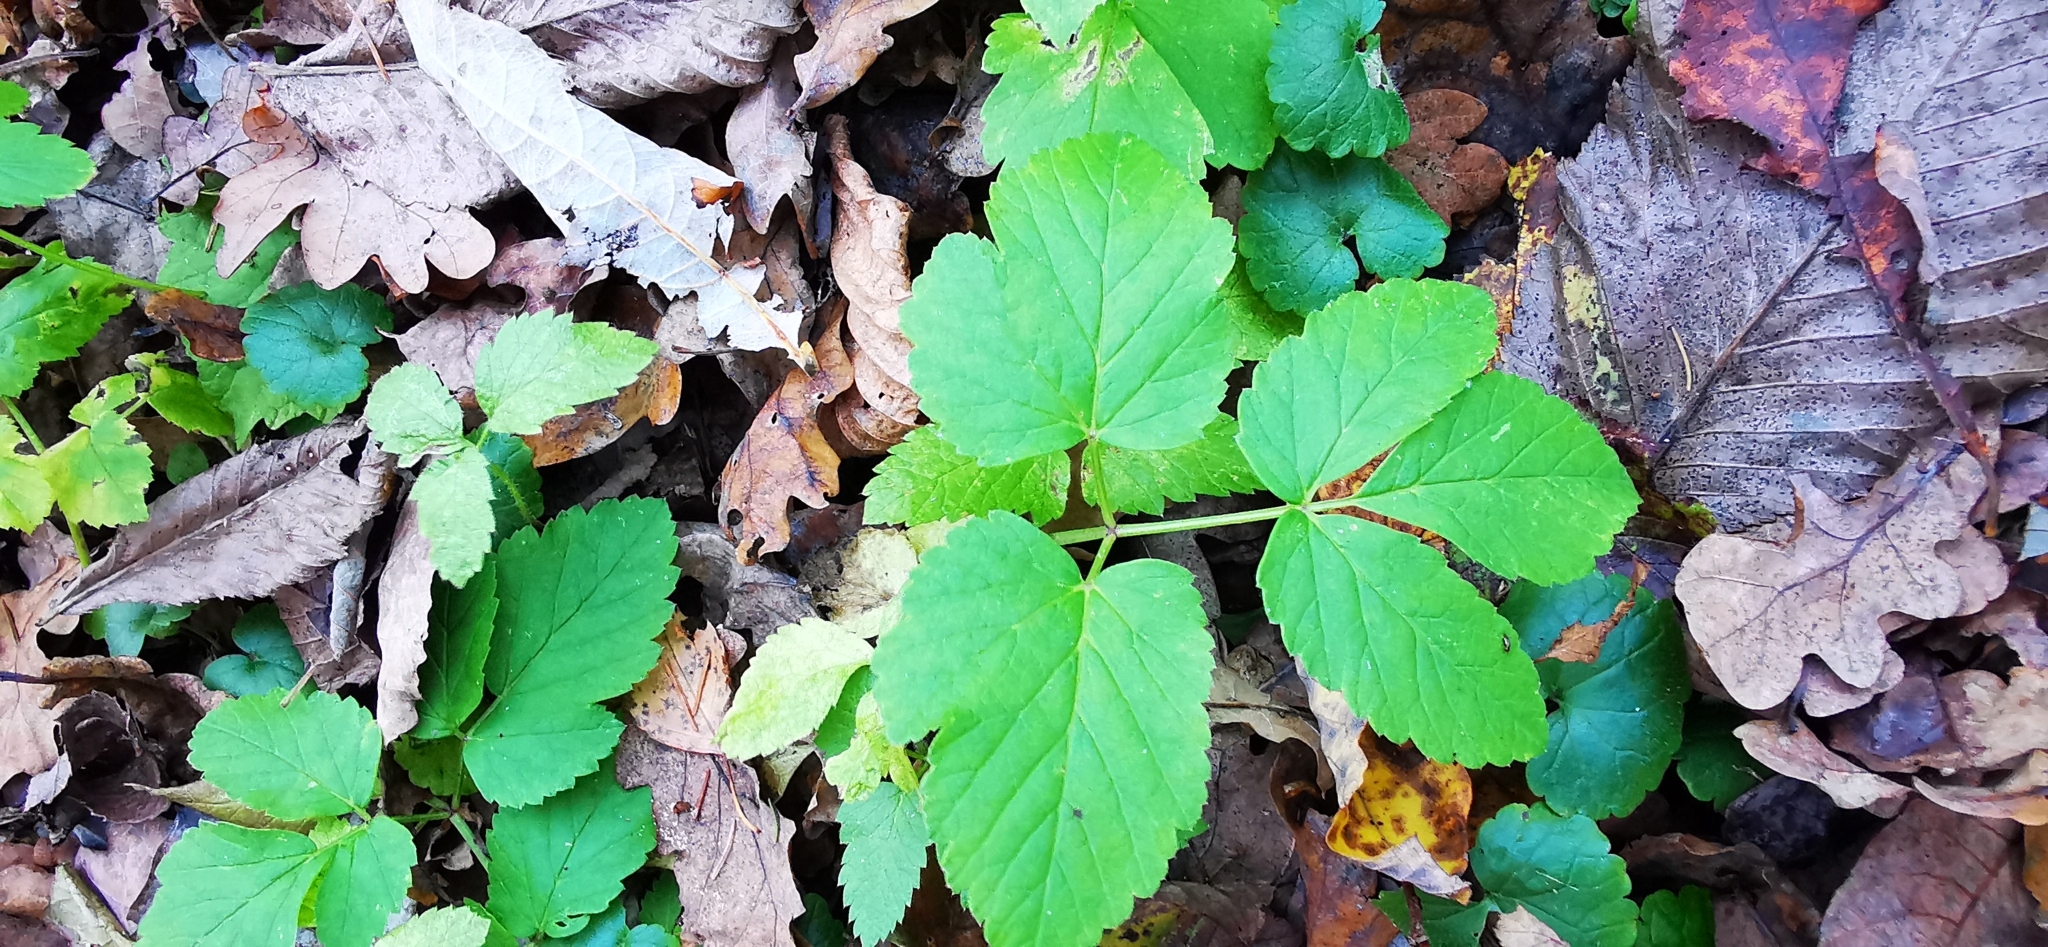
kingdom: Plantae
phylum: Tracheophyta
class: Magnoliopsida
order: Apiales
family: Apiaceae
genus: Aegopodium
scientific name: Aegopodium podagraria
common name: Ground-elder
